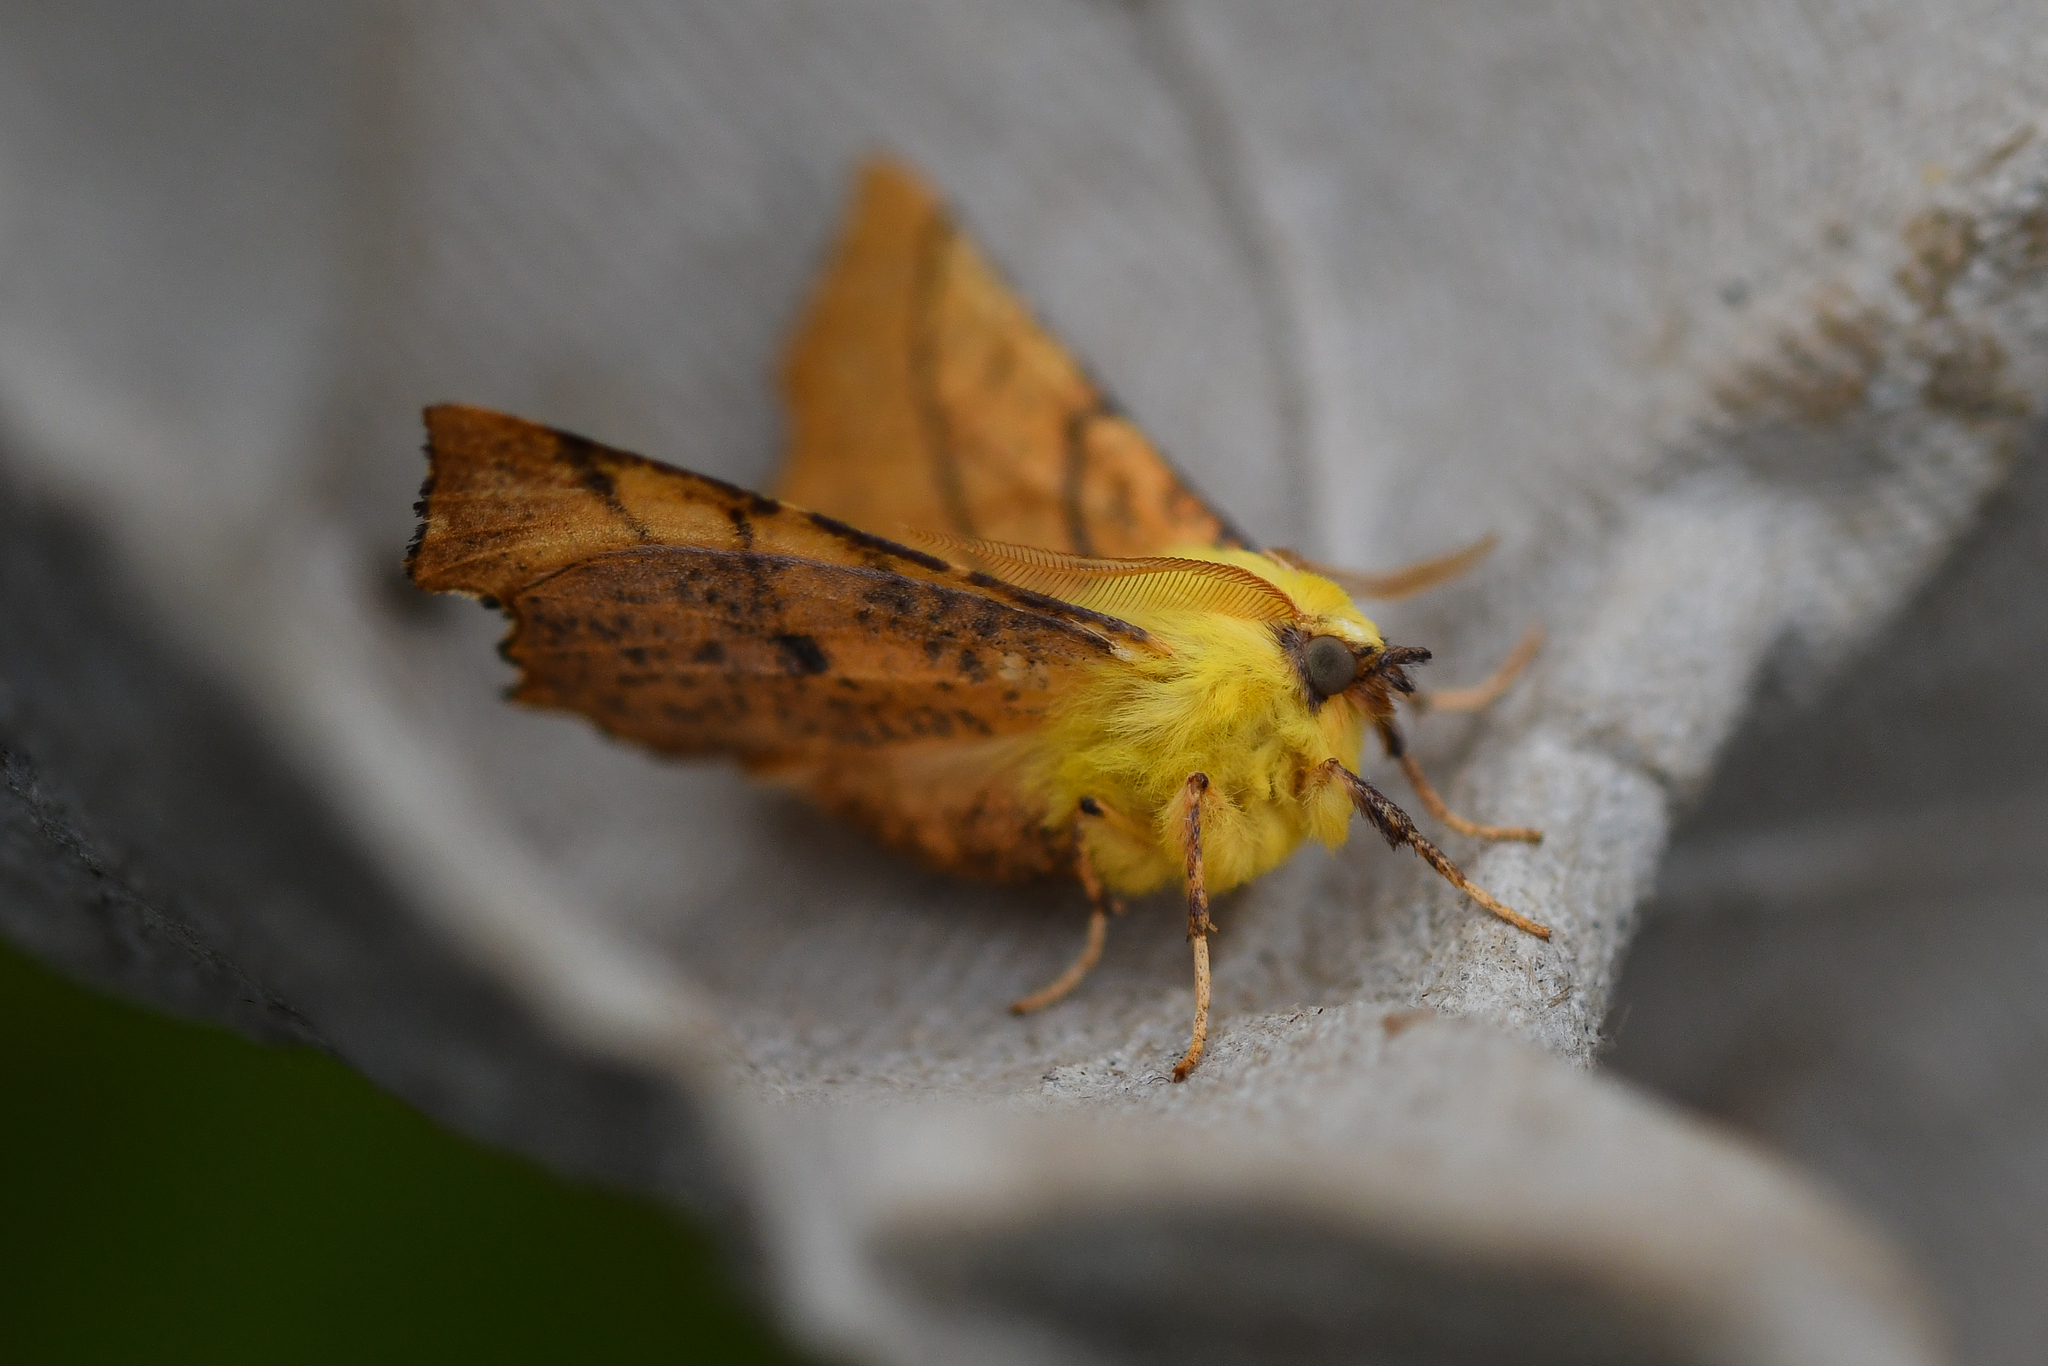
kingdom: Animalia
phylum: Arthropoda
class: Insecta
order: Lepidoptera
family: Geometridae
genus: Ennomos
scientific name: Ennomos alniaria
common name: Canary-shouldered thorn
